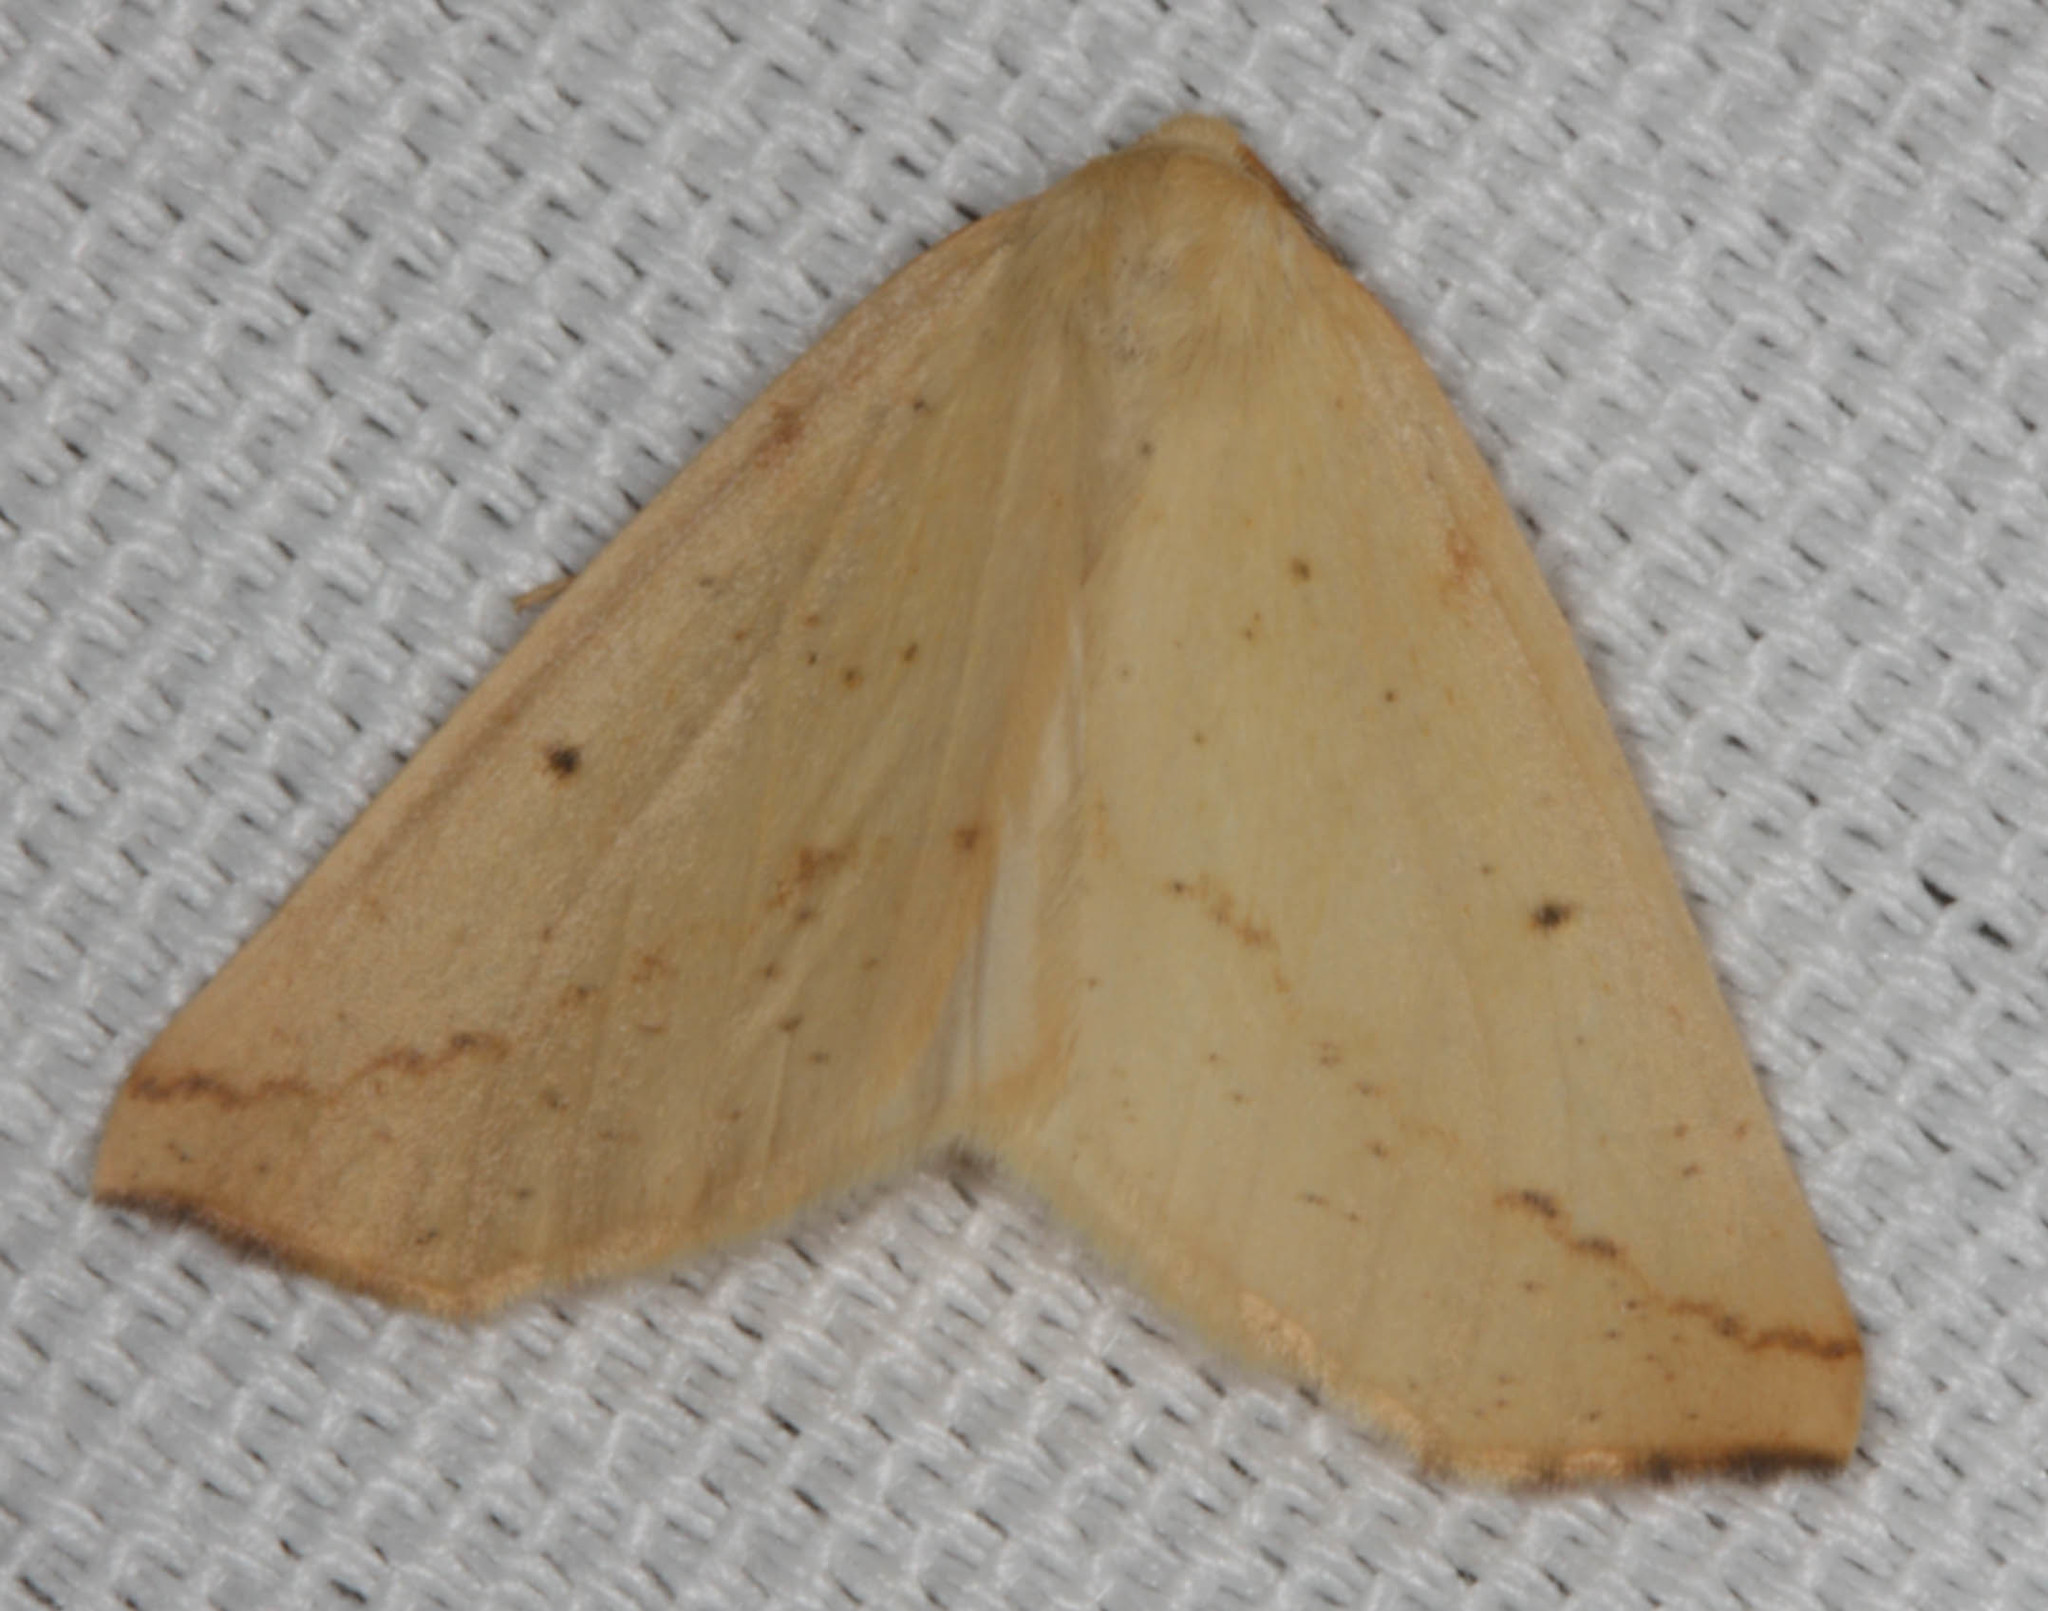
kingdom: Animalia
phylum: Arthropoda
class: Insecta
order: Lepidoptera
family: Geometridae
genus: Neoterpes
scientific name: Neoterpes edwardsata
